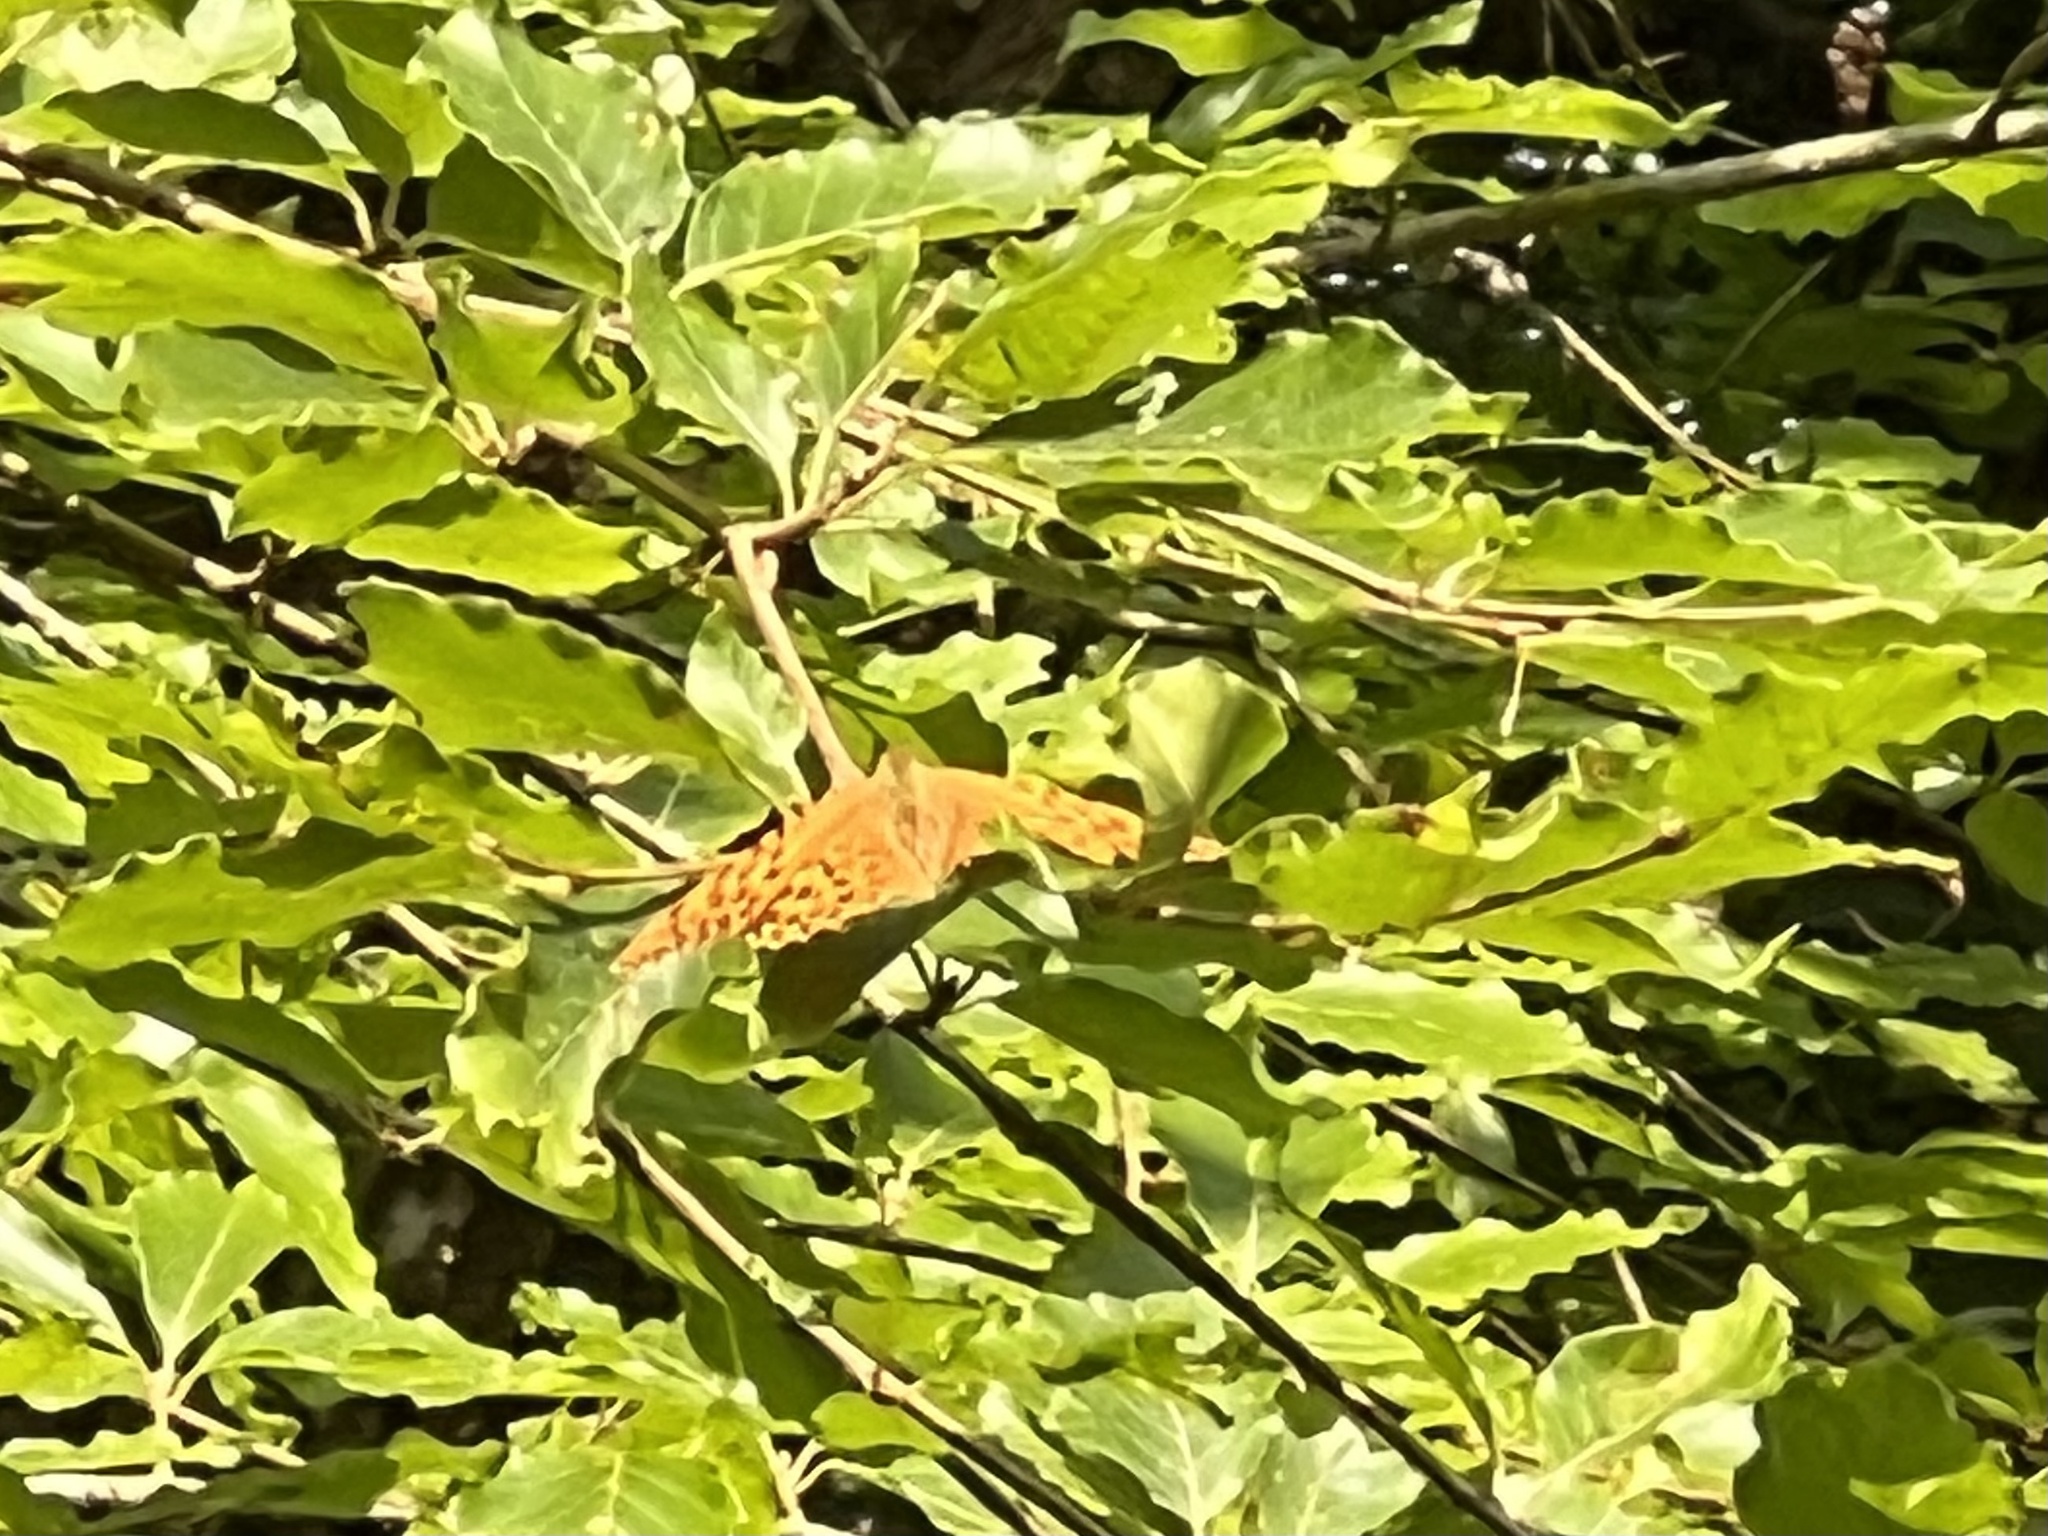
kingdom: Animalia
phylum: Arthropoda
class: Insecta
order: Lepidoptera
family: Nymphalidae
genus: Argynnis
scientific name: Argynnis paphia
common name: Silver-washed fritillary
